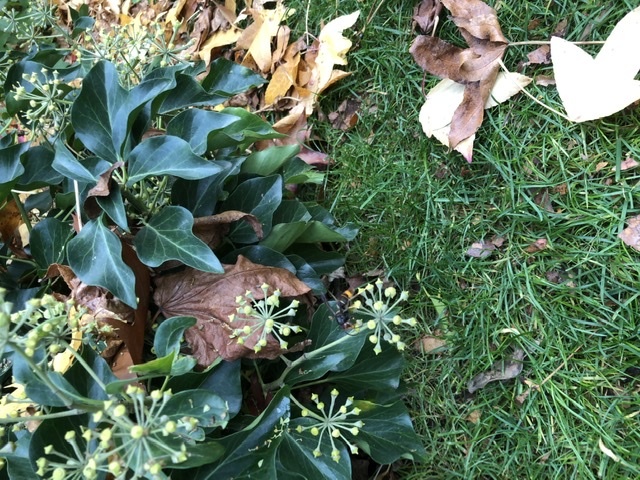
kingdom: Animalia
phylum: Arthropoda
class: Insecta
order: Hymenoptera
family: Vespidae
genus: Vespa
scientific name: Vespa velutina
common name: Asian hornet
